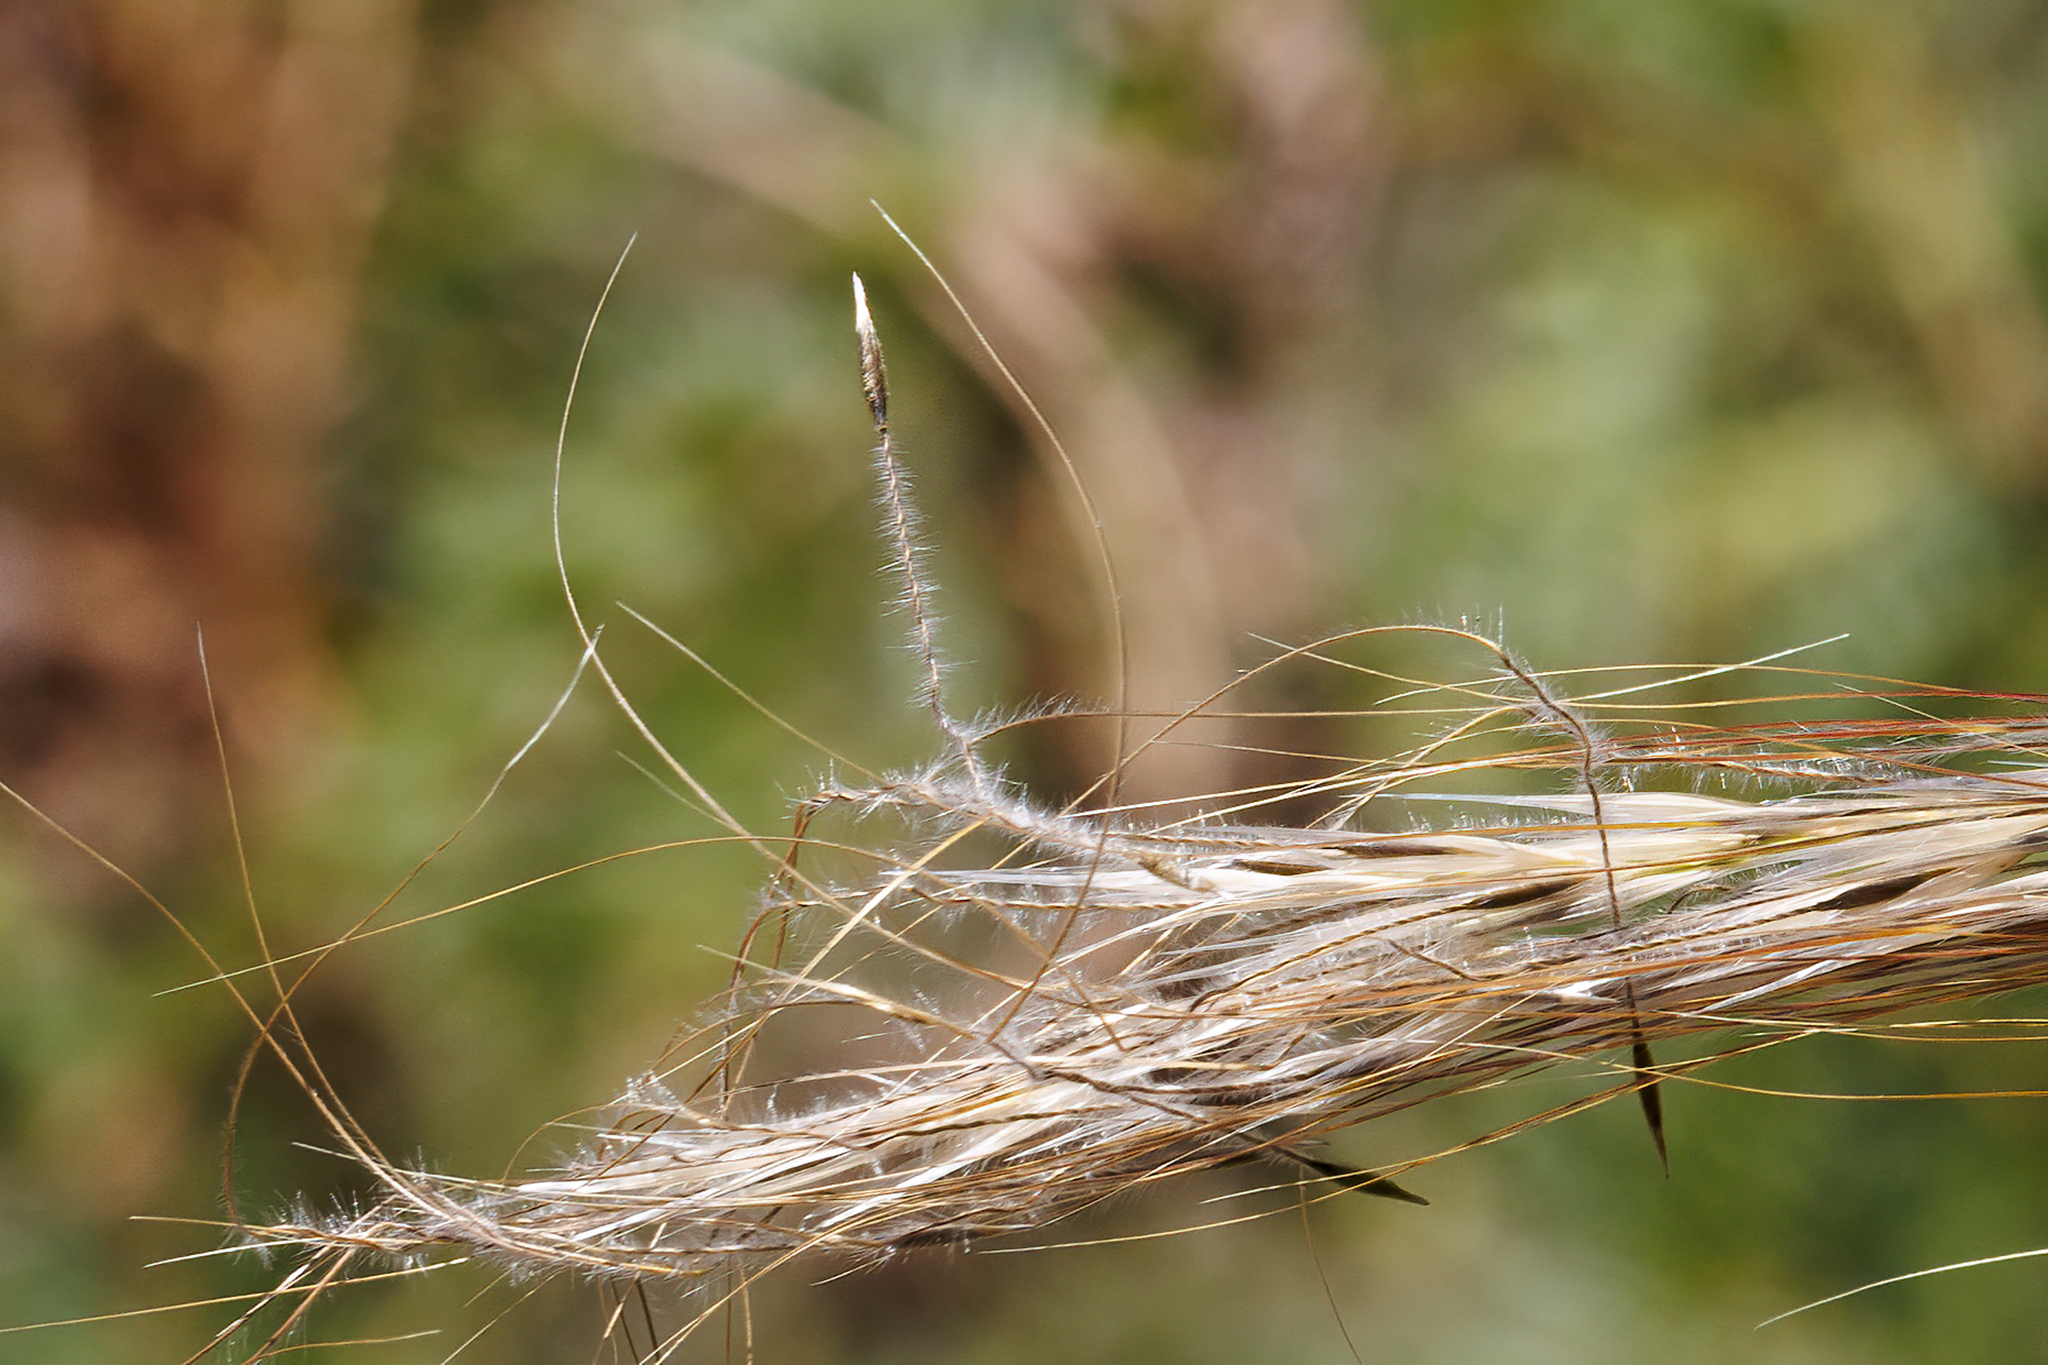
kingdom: Plantae
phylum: Tracheophyta
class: Liliopsida
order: Poales
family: Poaceae
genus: Austrostipa
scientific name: Austrostipa mollis
